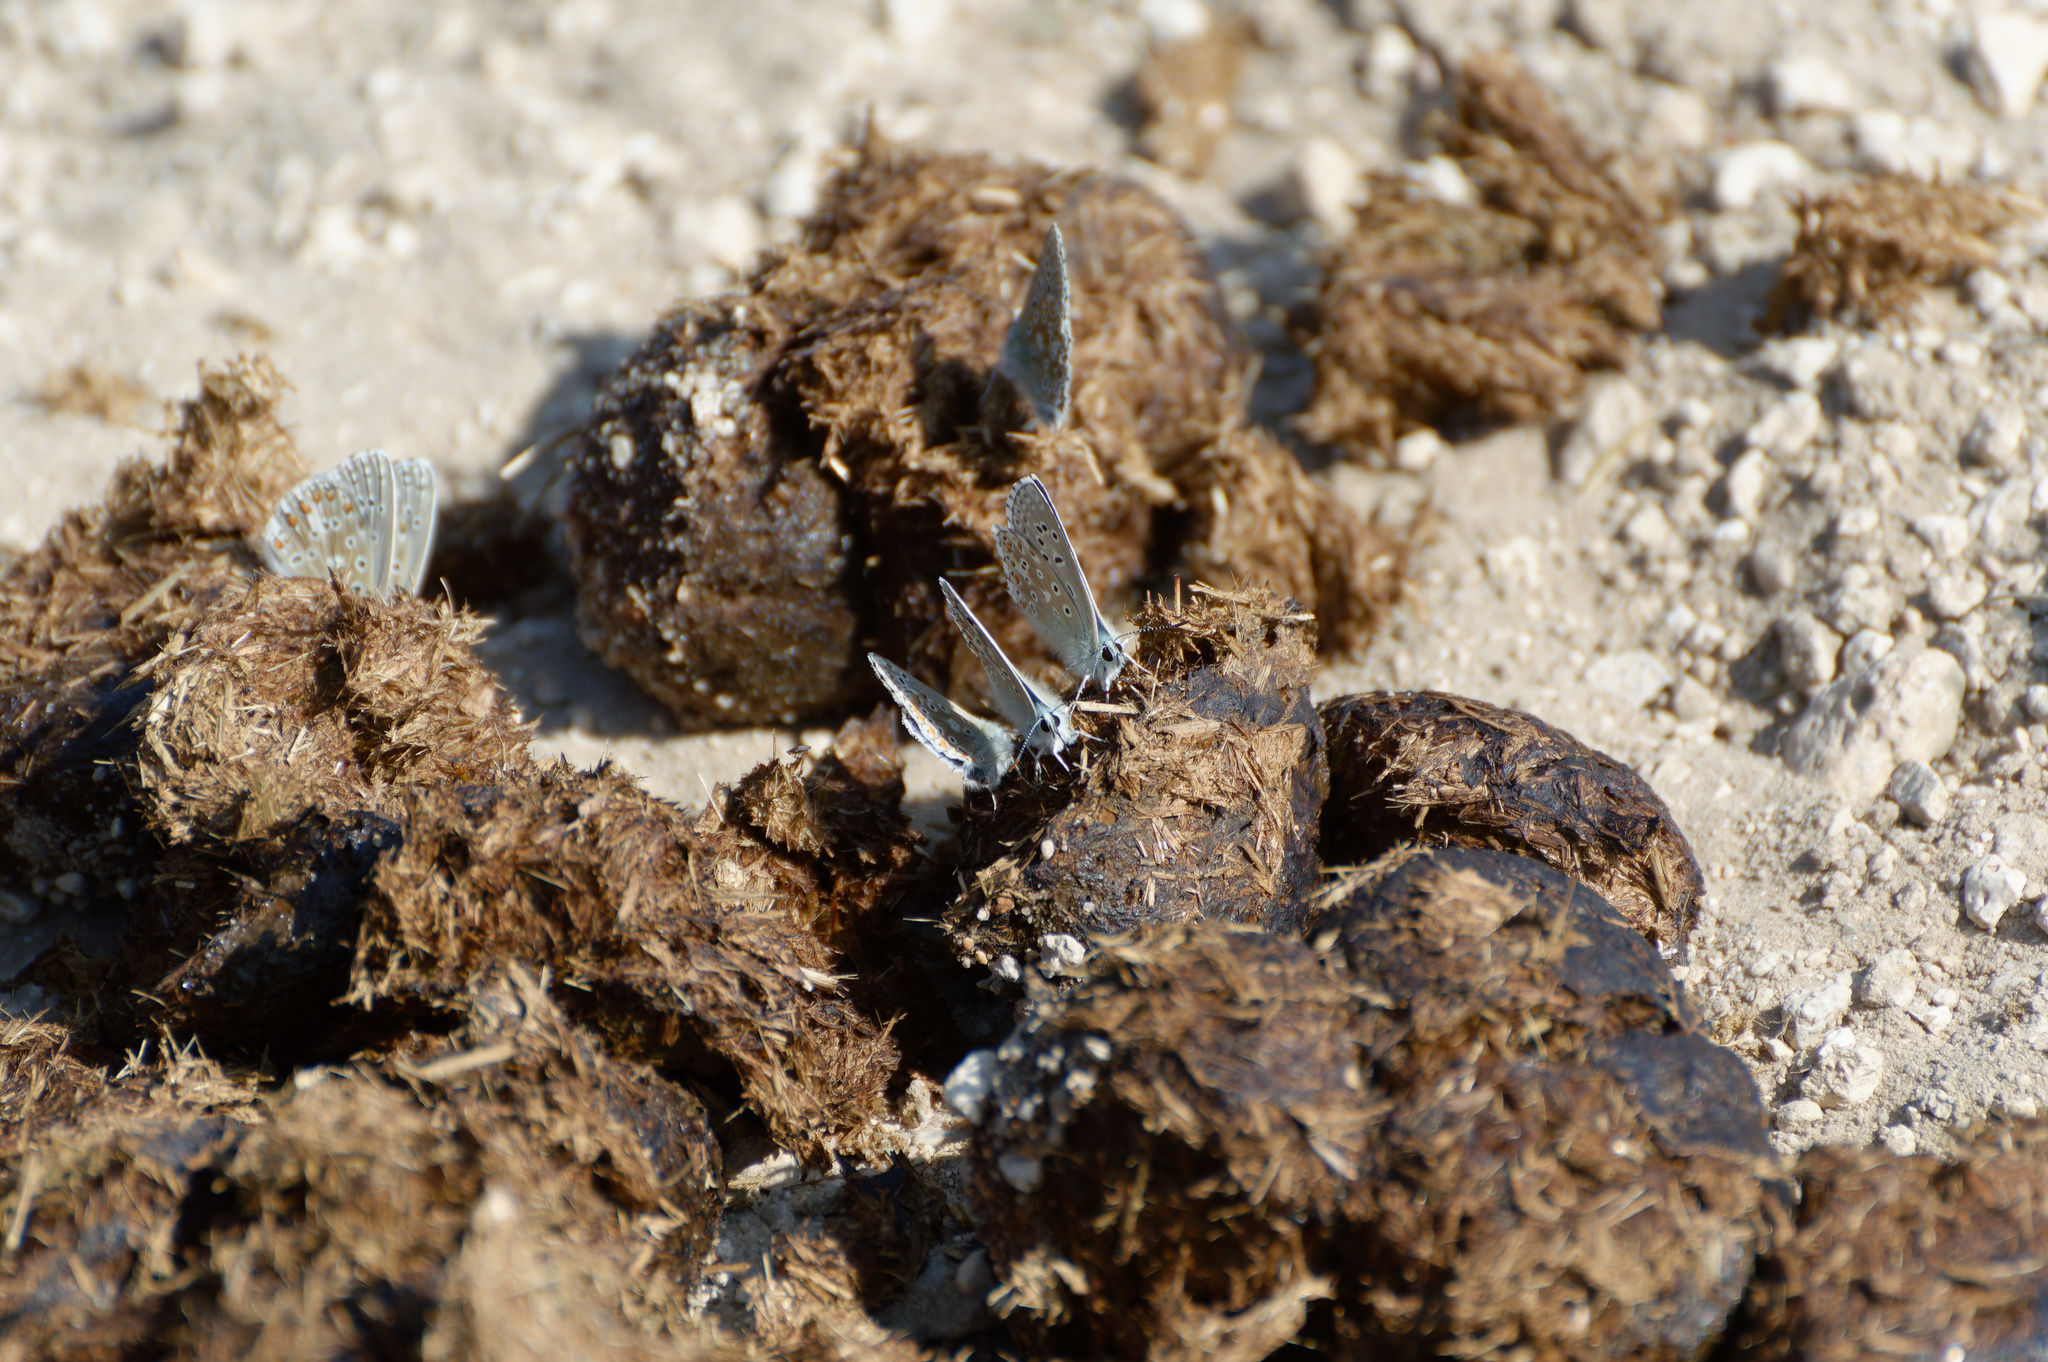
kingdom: Animalia
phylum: Arthropoda
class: Insecta
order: Lepidoptera
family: Lycaenidae
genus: Lysandra
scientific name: Lysandra bellargus
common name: Adonis blue
